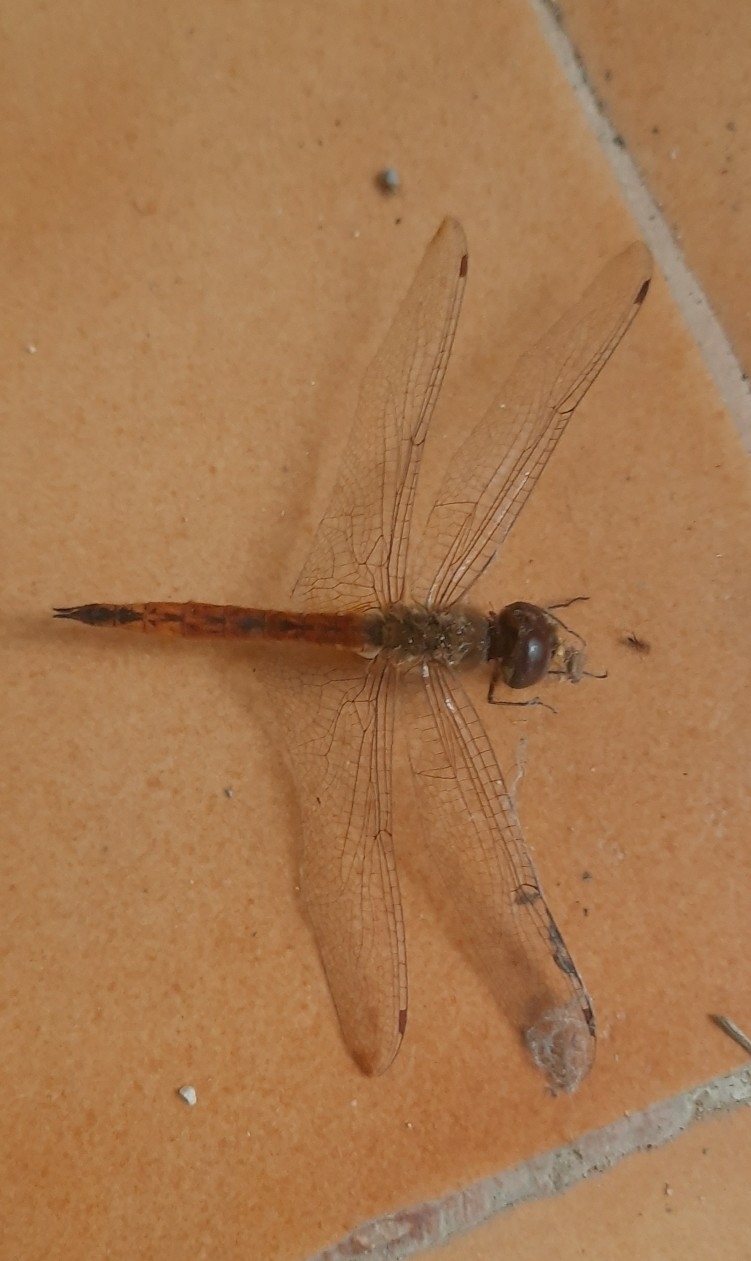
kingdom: Animalia
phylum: Arthropoda
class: Insecta
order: Odonata
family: Libellulidae
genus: Pantala
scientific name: Pantala flavescens
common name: Wandering glider
